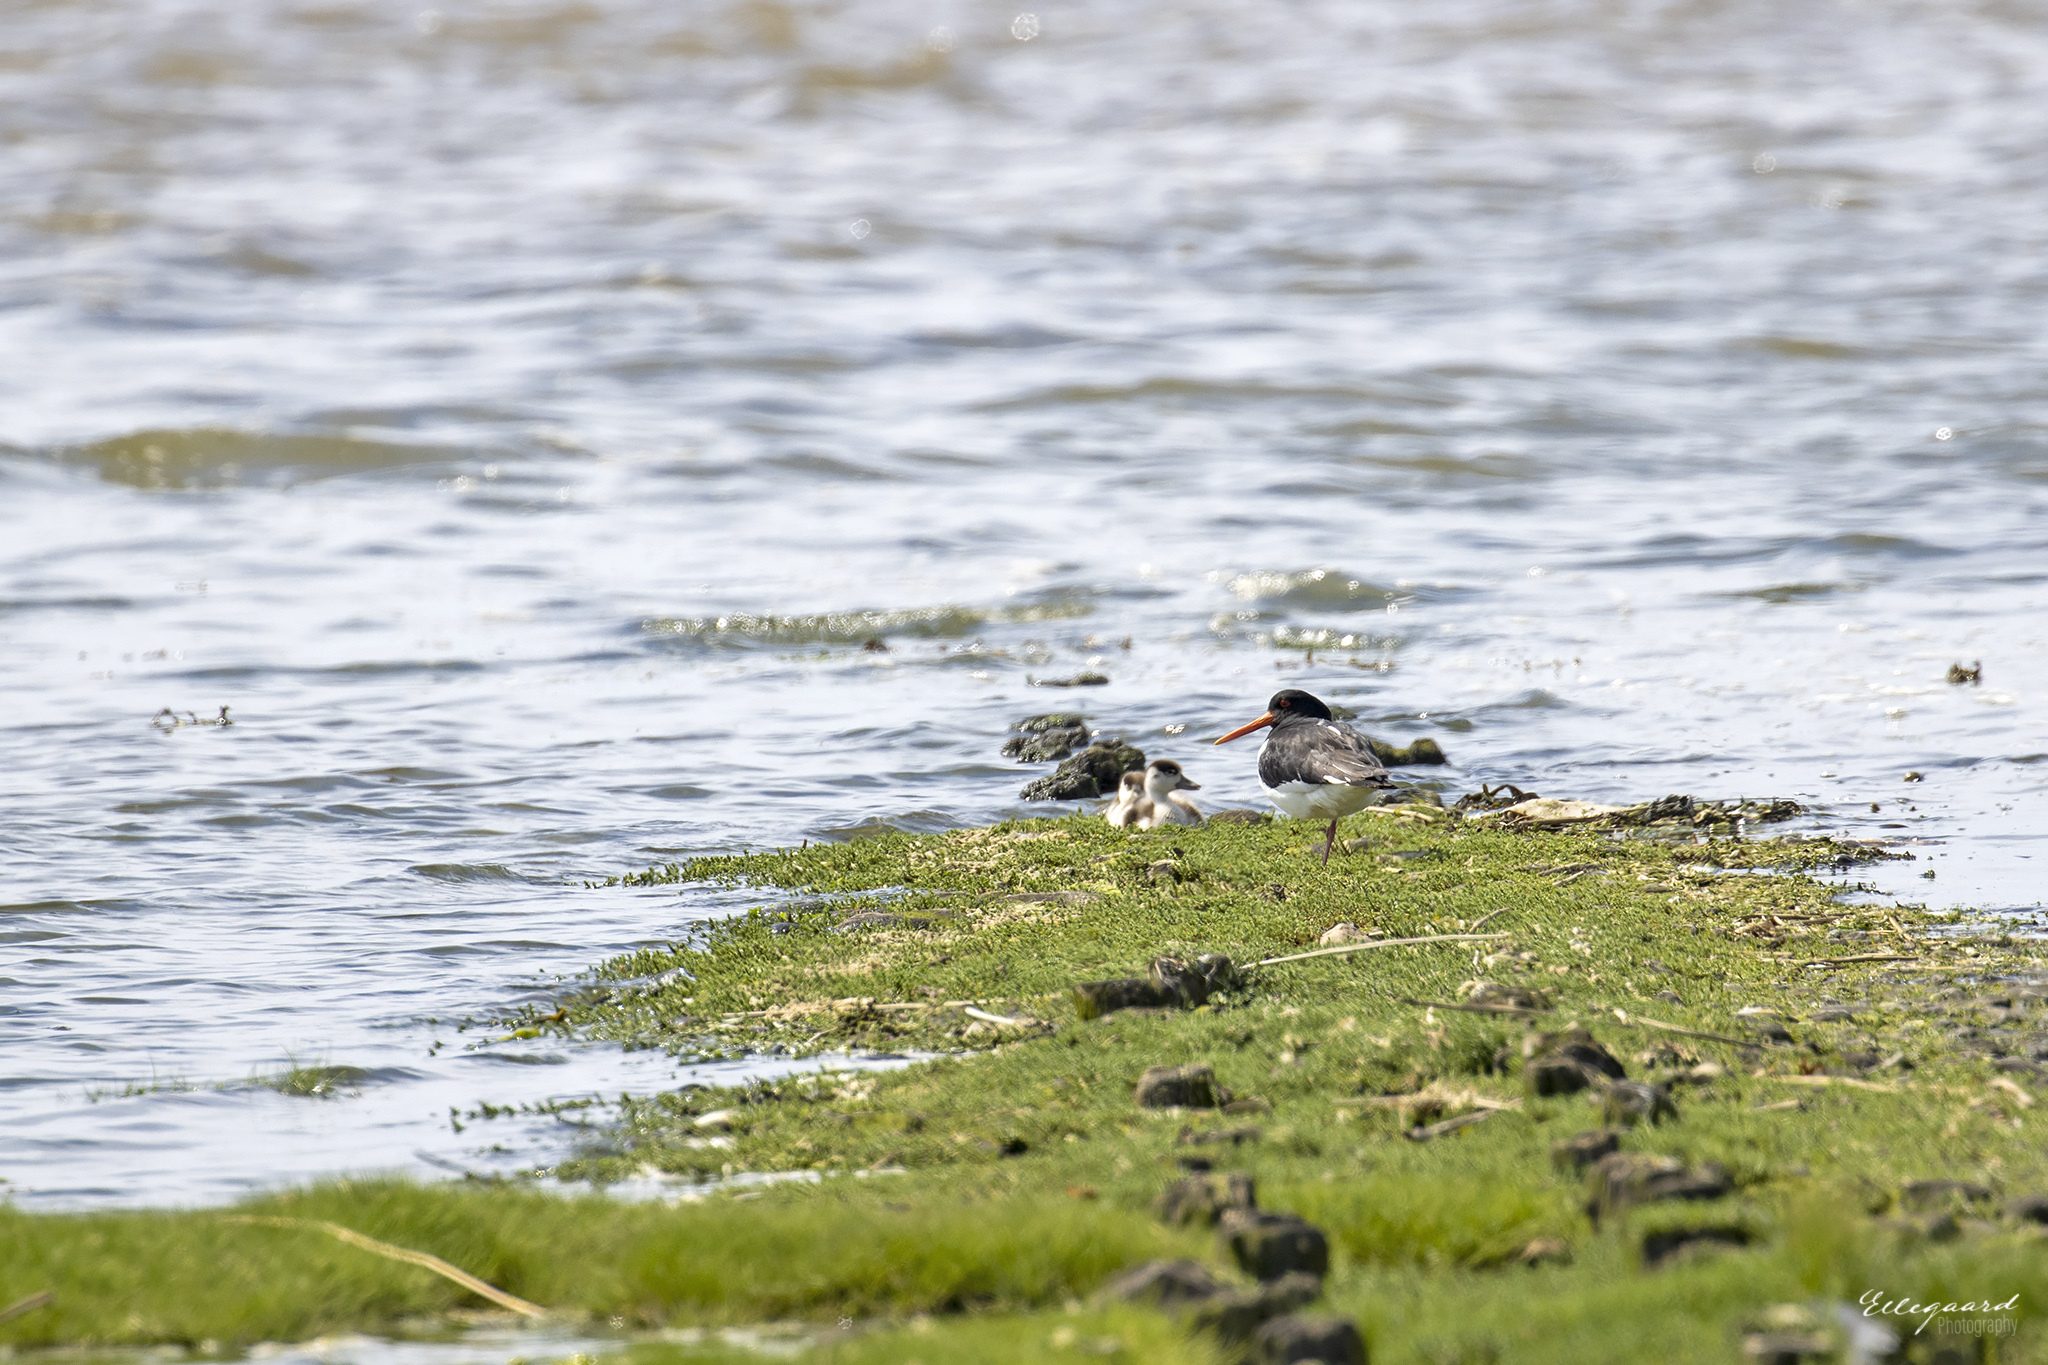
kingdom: Animalia
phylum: Chordata
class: Aves
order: Charadriiformes
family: Haematopodidae
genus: Haematopus
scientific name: Haematopus ostralegus
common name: Eurasian oystercatcher
